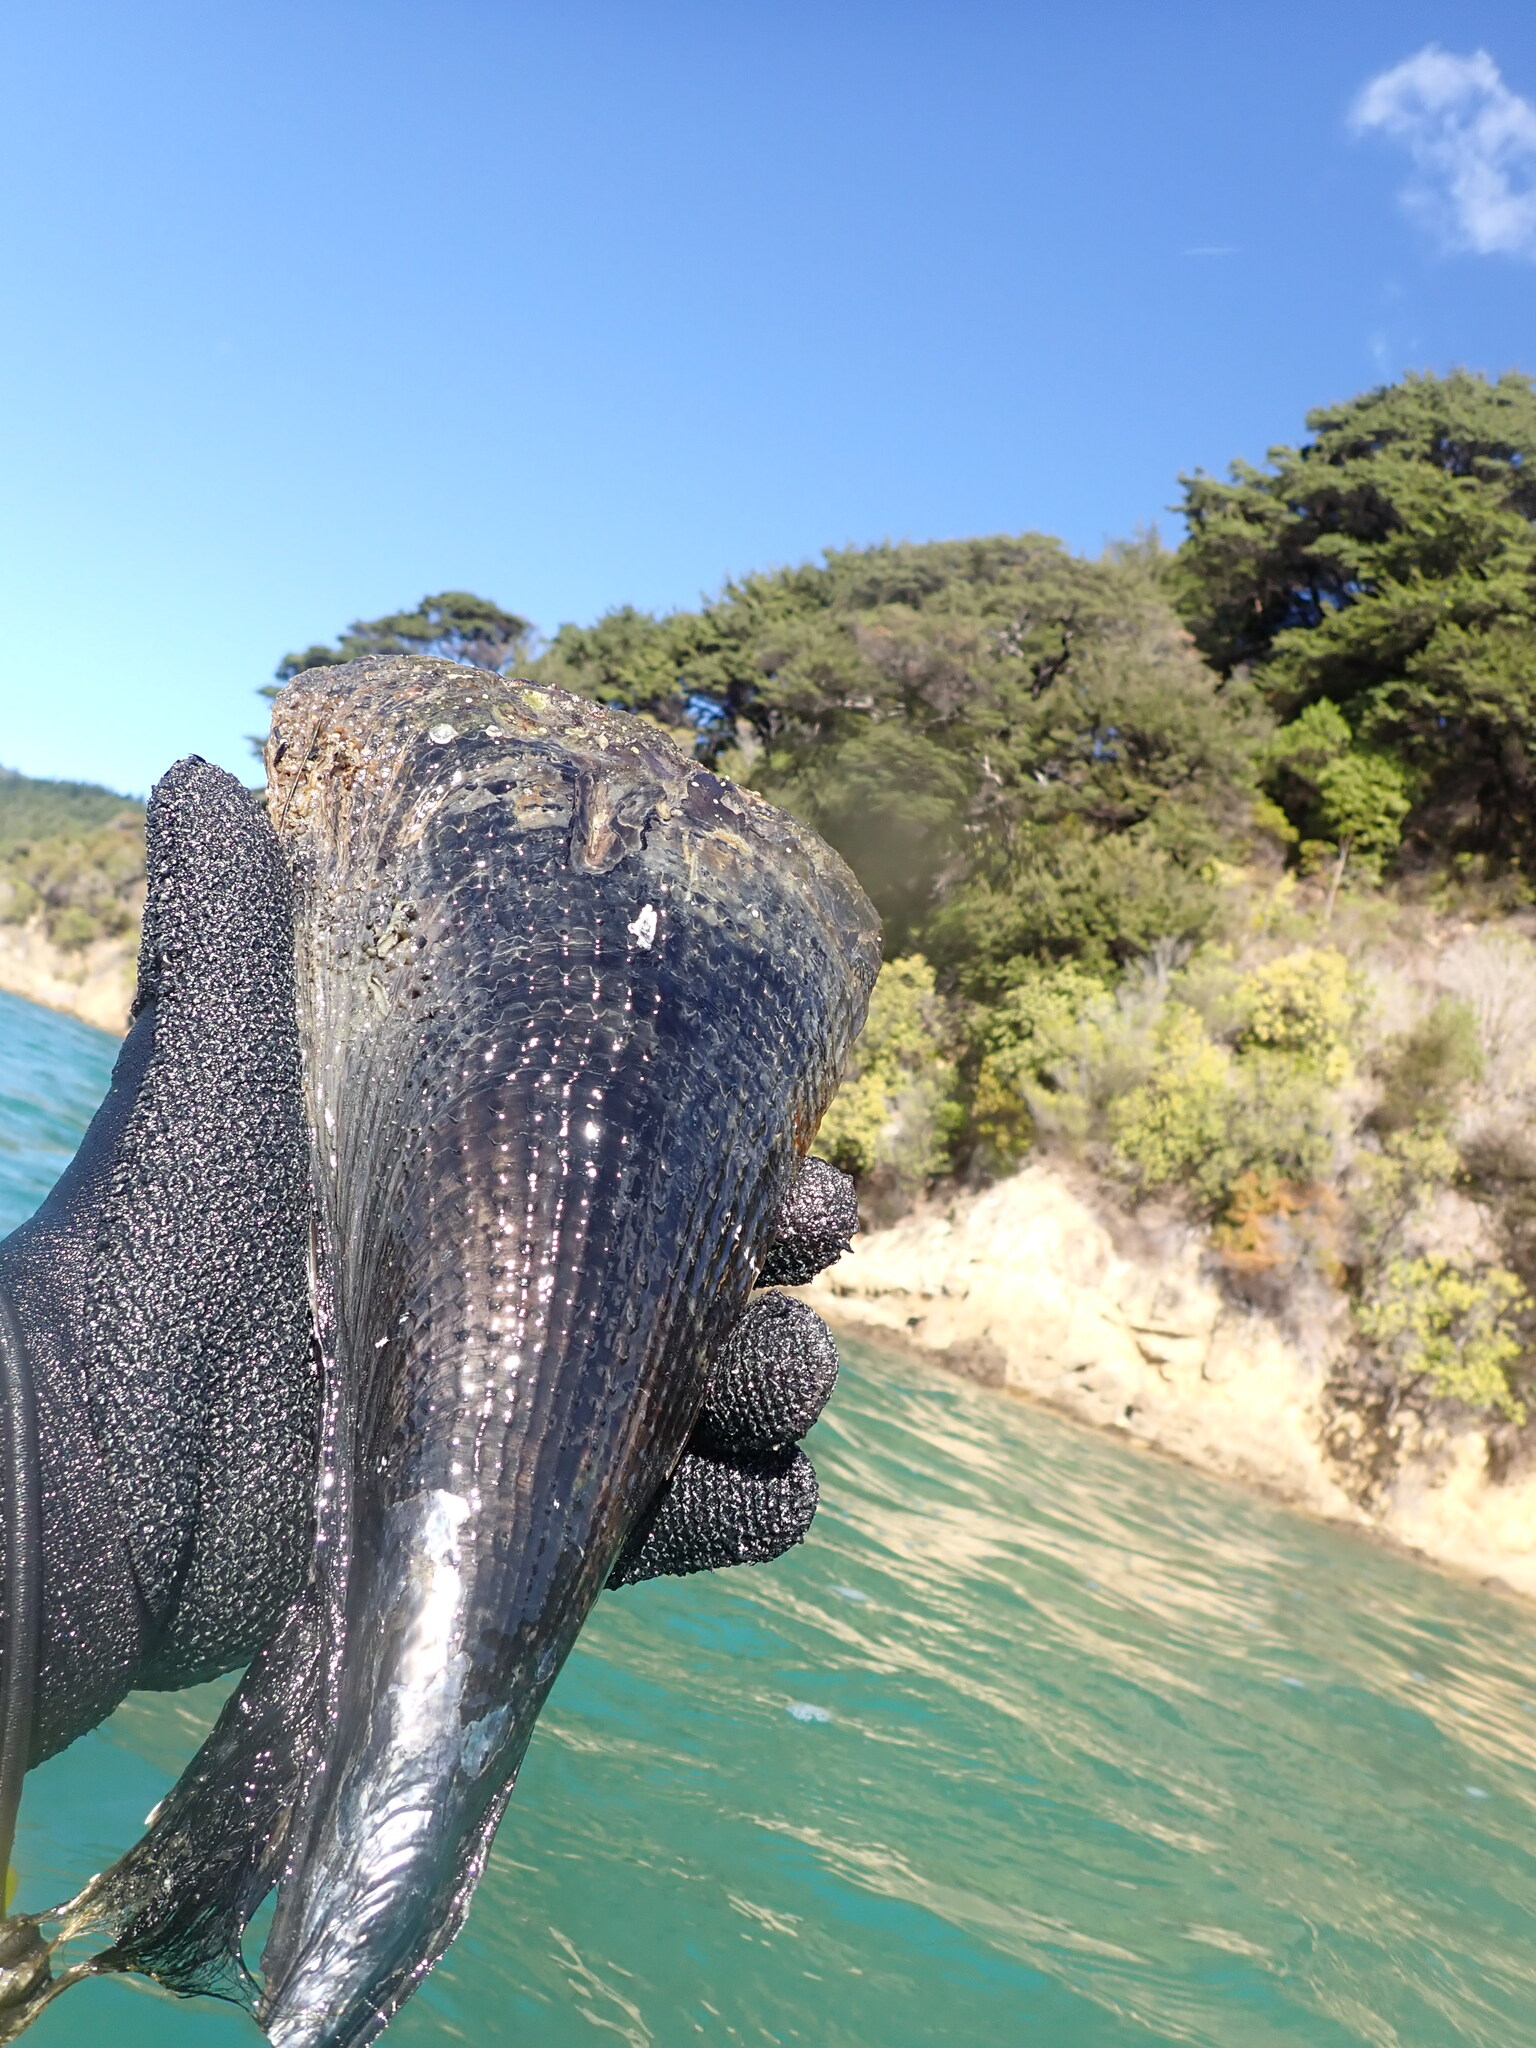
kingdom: Animalia
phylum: Mollusca
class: Bivalvia
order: Ostreida
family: Pinnidae
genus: Atrina
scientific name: Atrina zelandica
